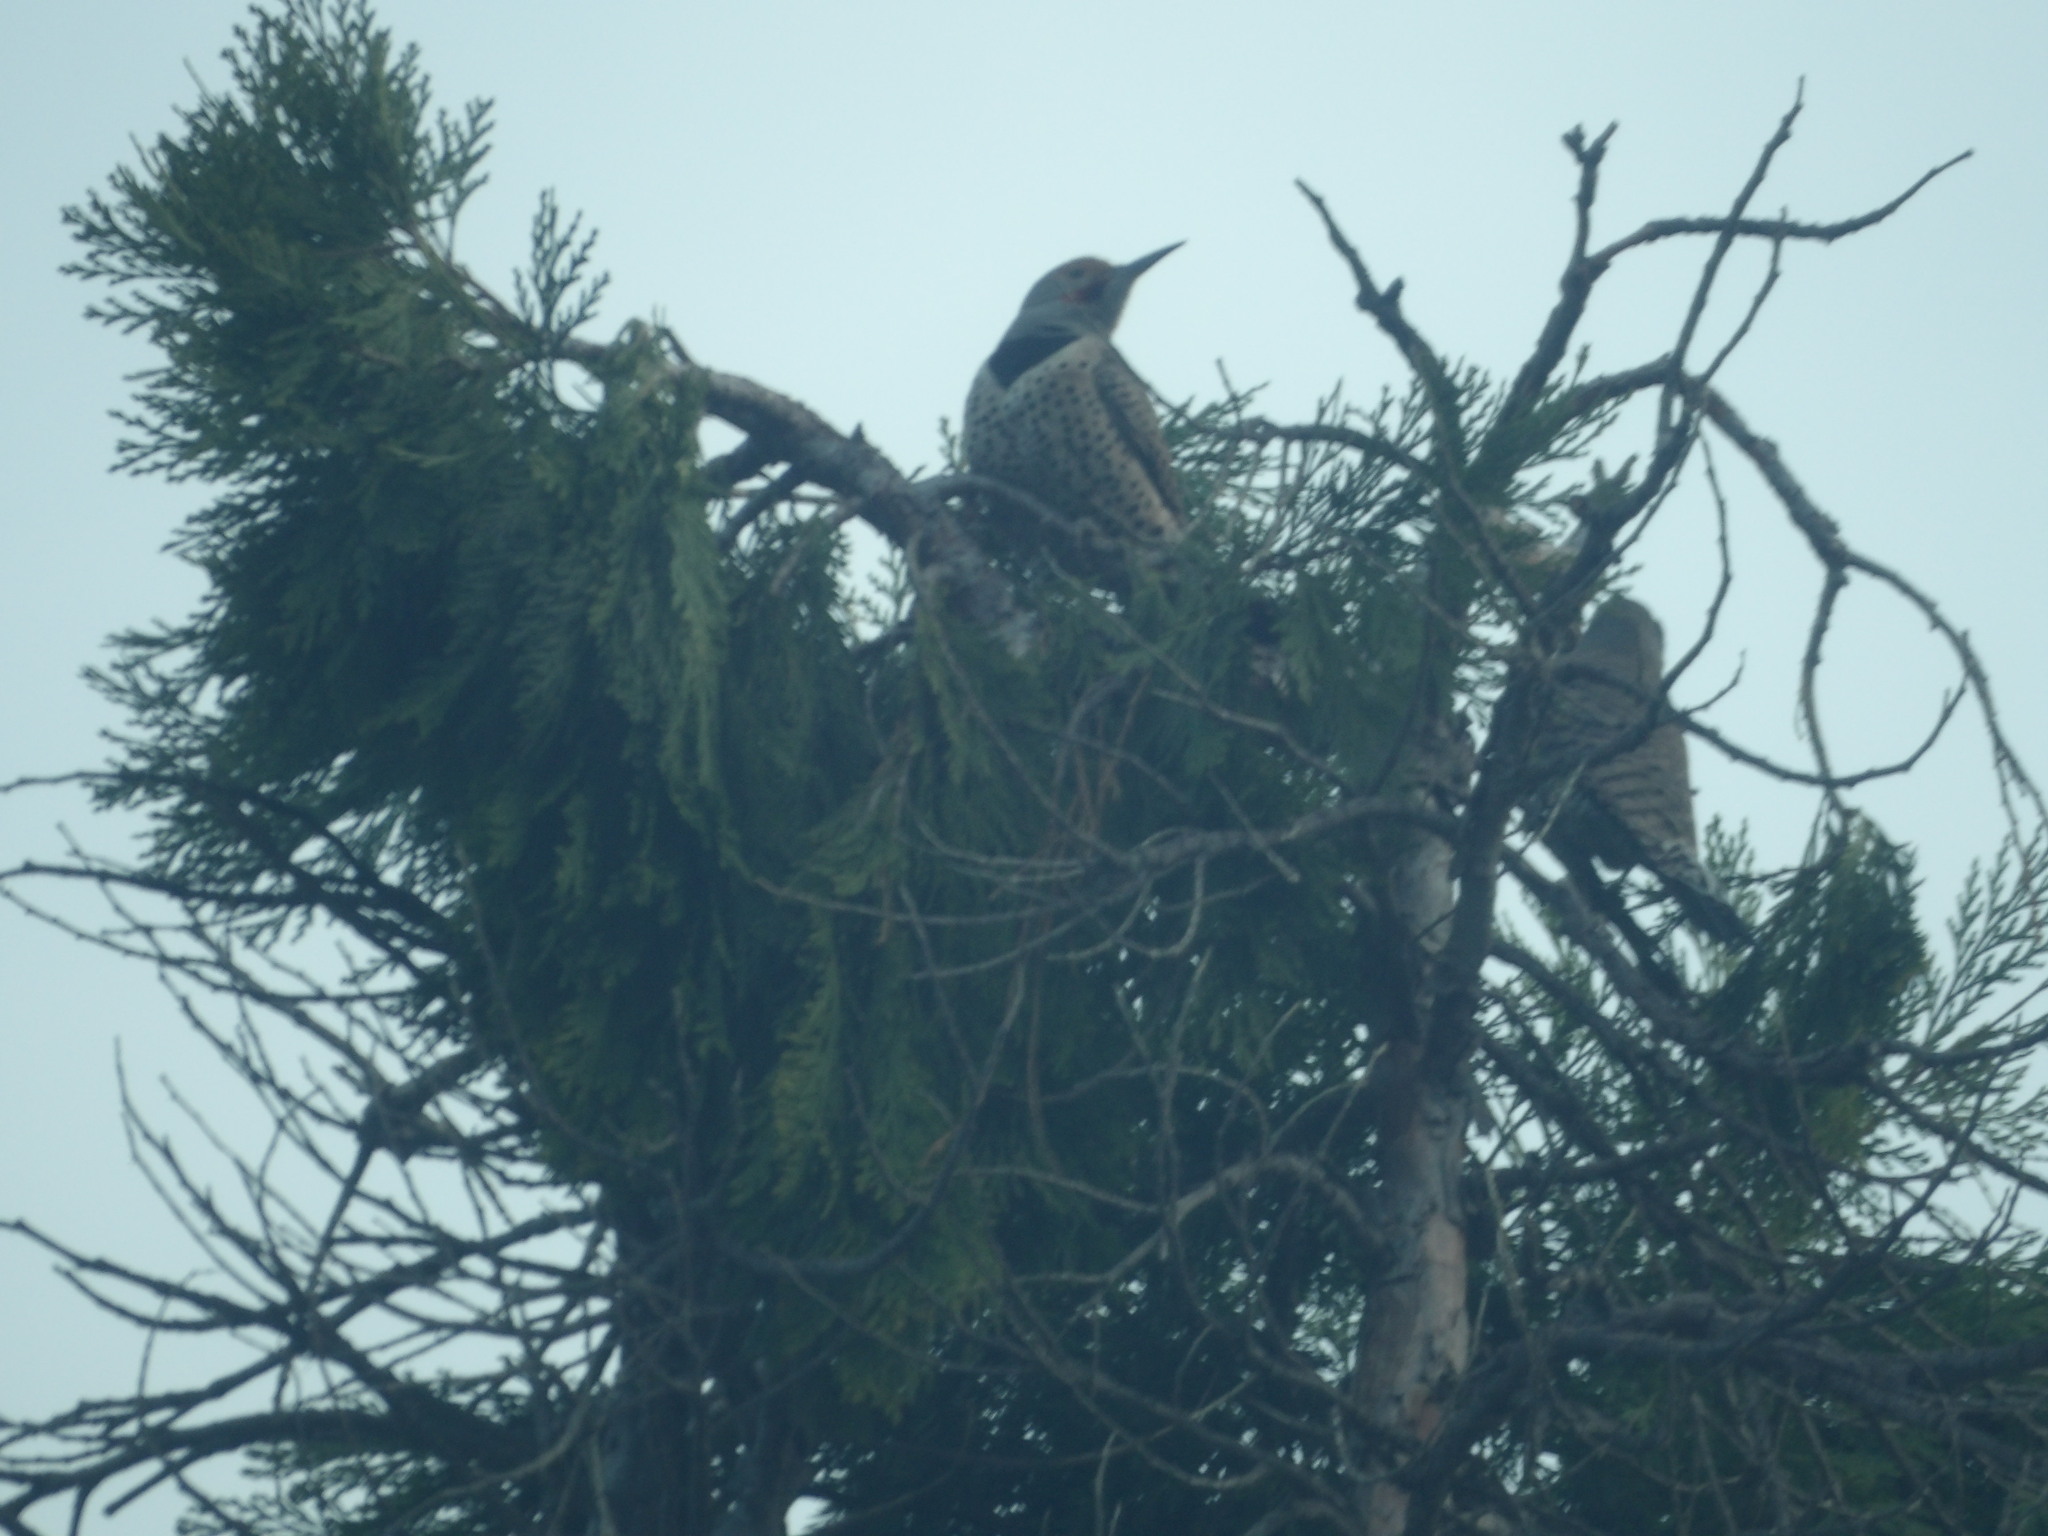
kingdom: Animalia
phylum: Chordata
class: Aves
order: Piciformes
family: Picidae
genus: Colaptes
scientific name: Colaptes auratus
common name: Northern flicker
